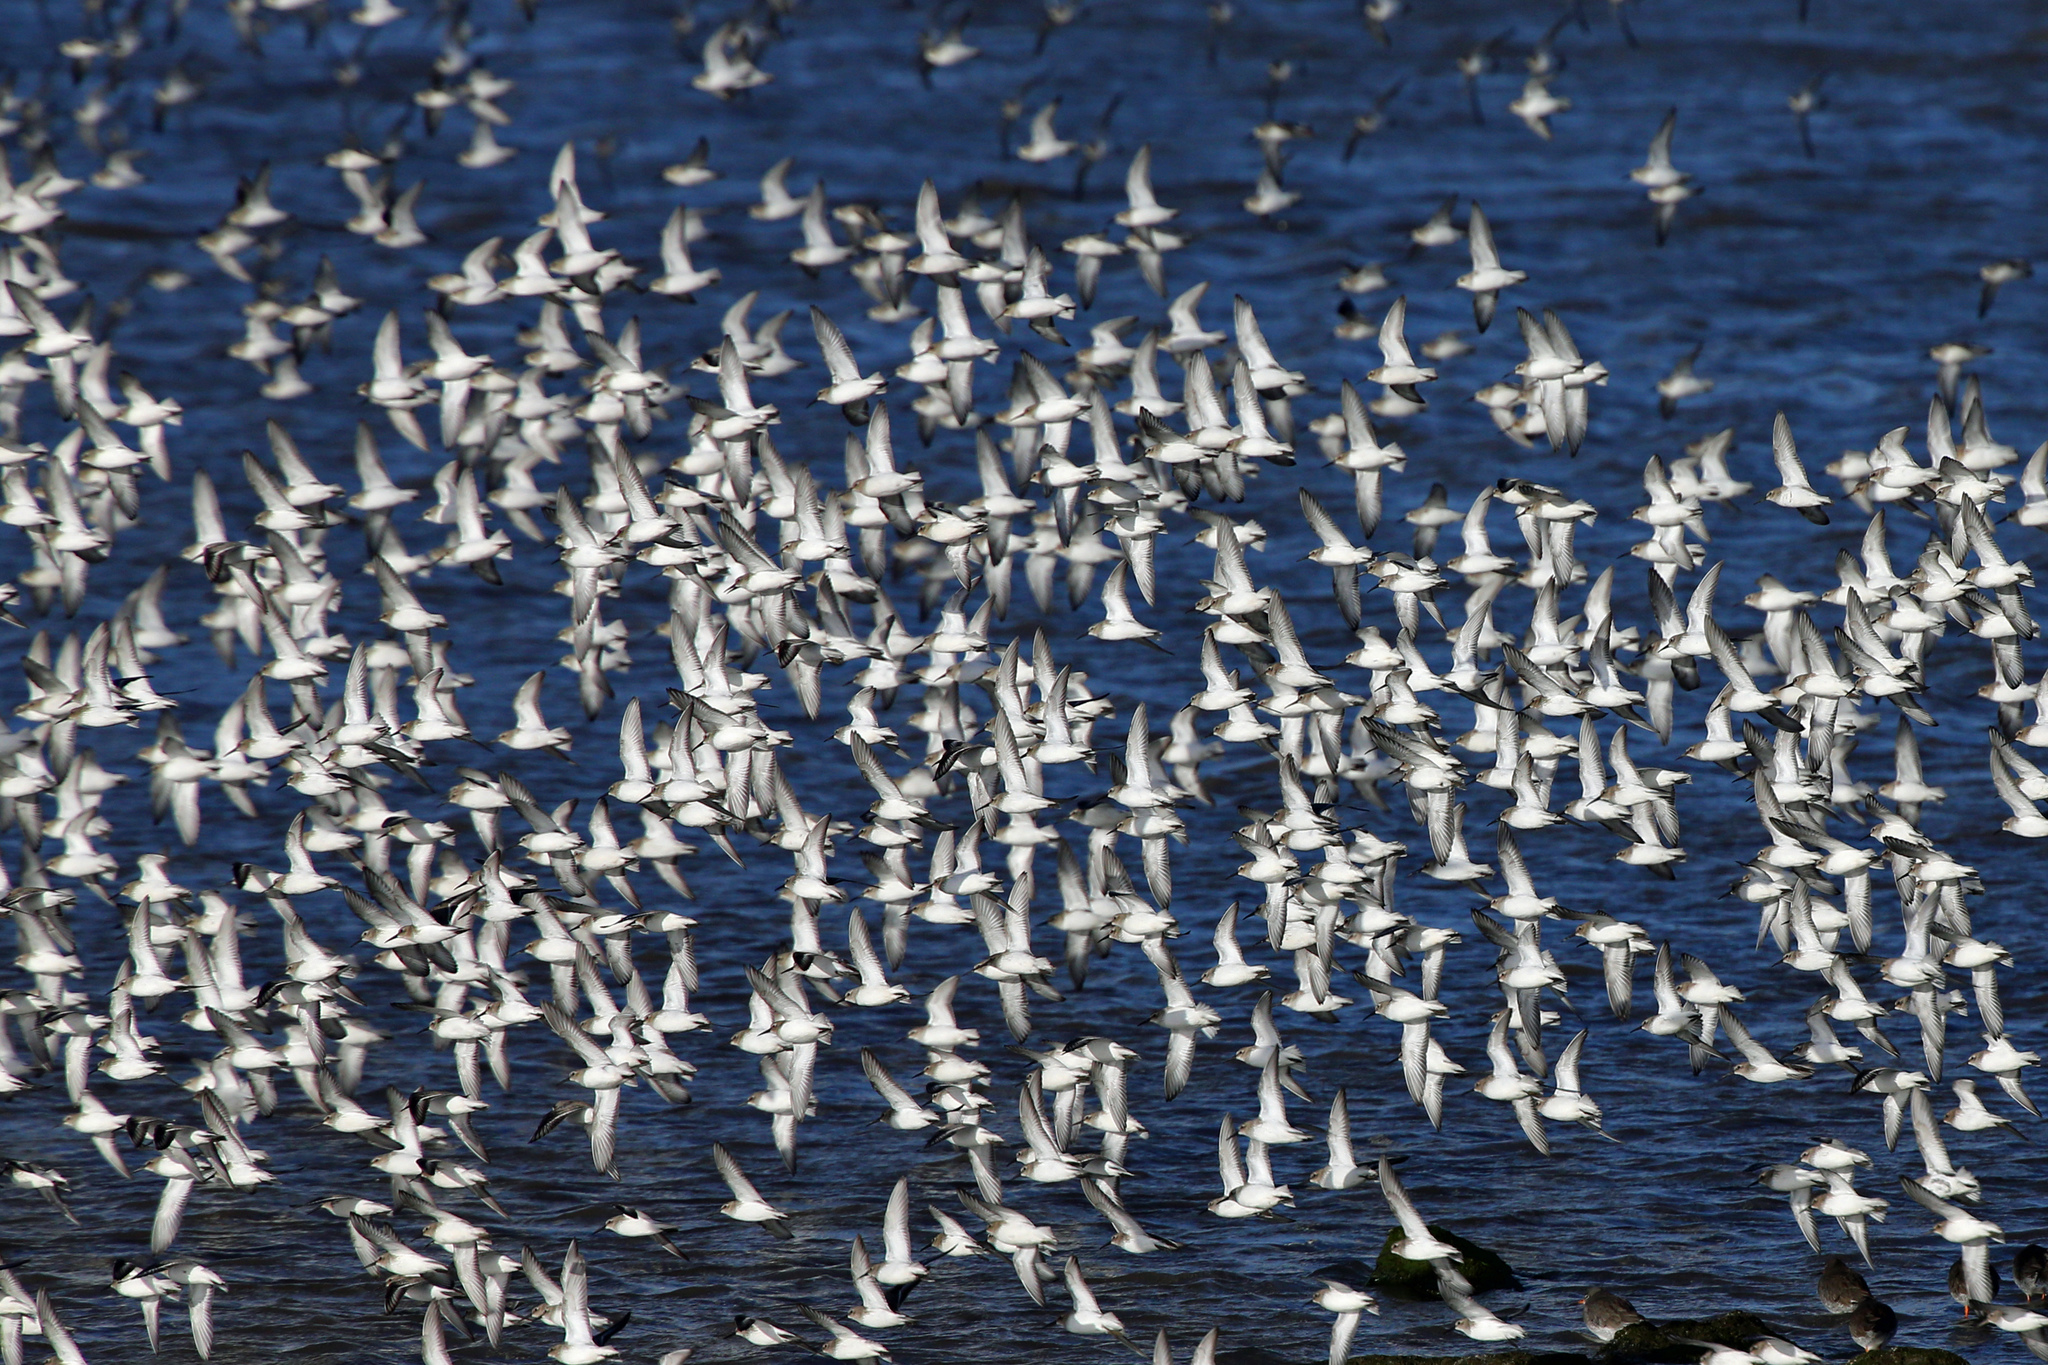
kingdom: Animalia
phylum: Chordata
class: Aves
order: Charadriiformes
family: Scolopacidae
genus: Calidris
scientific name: Calidris alpina
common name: Dunlin
